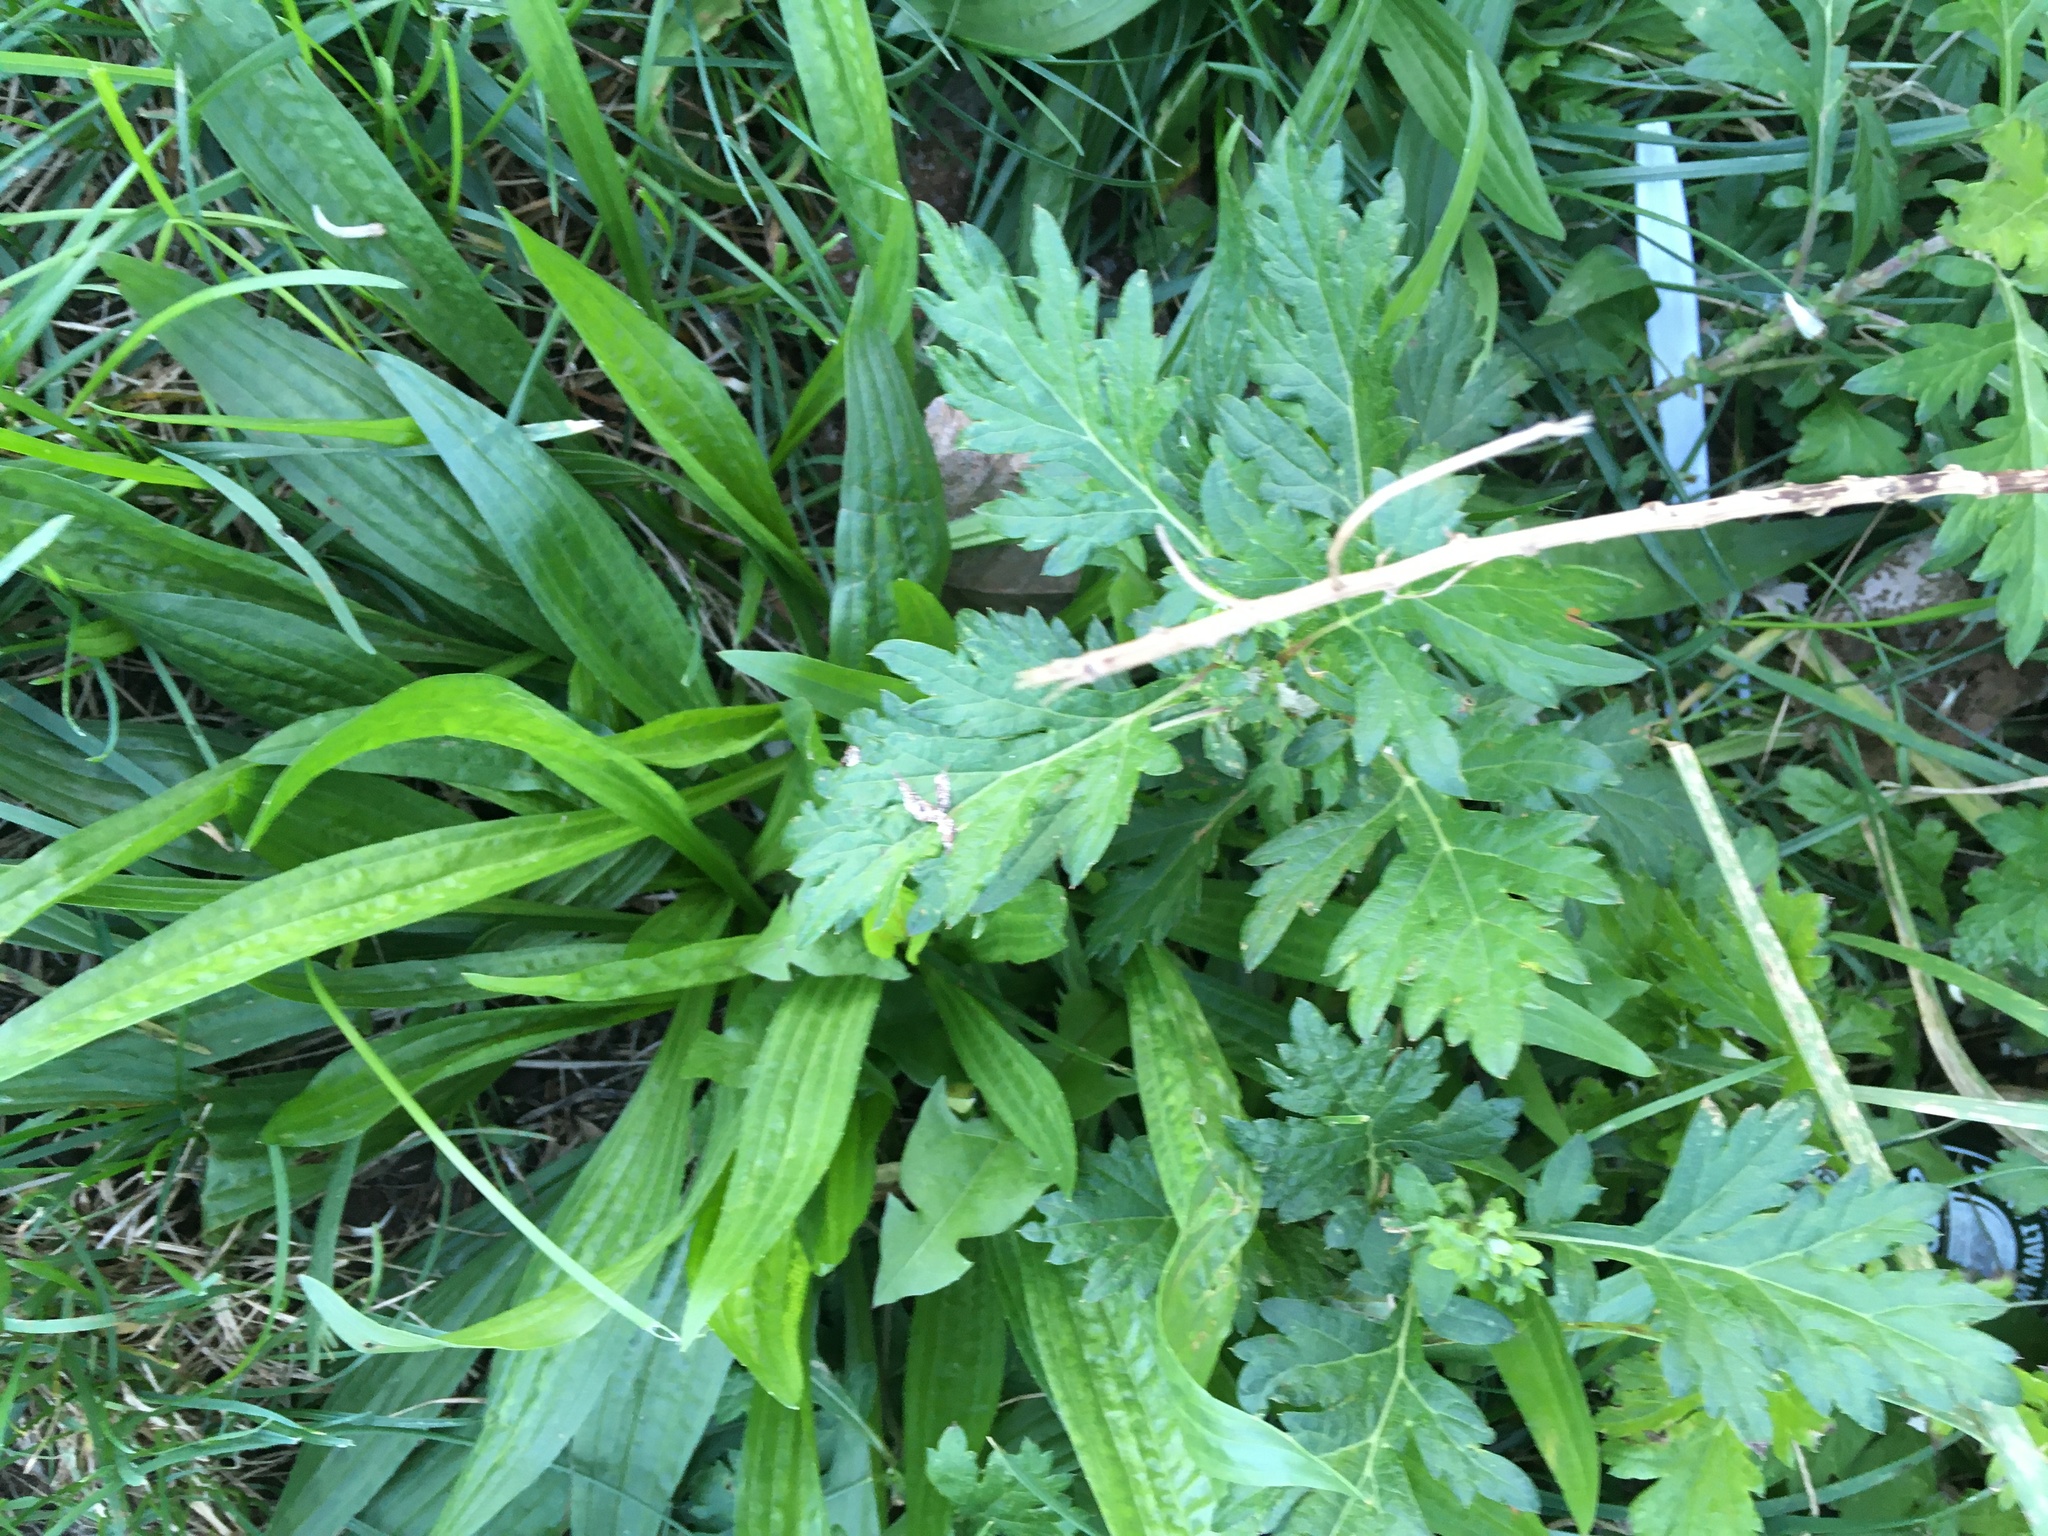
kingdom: Plantae
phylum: Tracheophyta
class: Magnoliopsida
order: Asterales
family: Asteraceae
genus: Artemisia
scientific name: Artemisia vulgaris
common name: Mugwort
